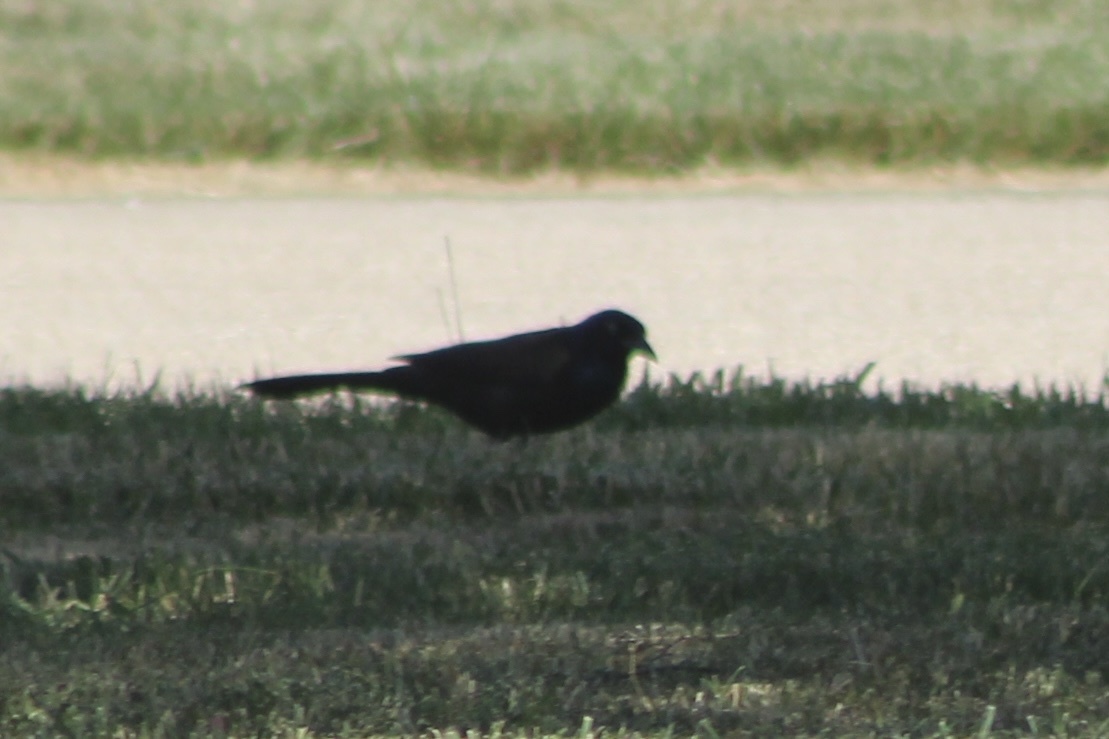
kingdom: Animalia
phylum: Chordata
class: Aves
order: Passeriformes
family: Icteridae
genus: Quiscalus
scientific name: Quiscalus quiscula
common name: Common grackle
